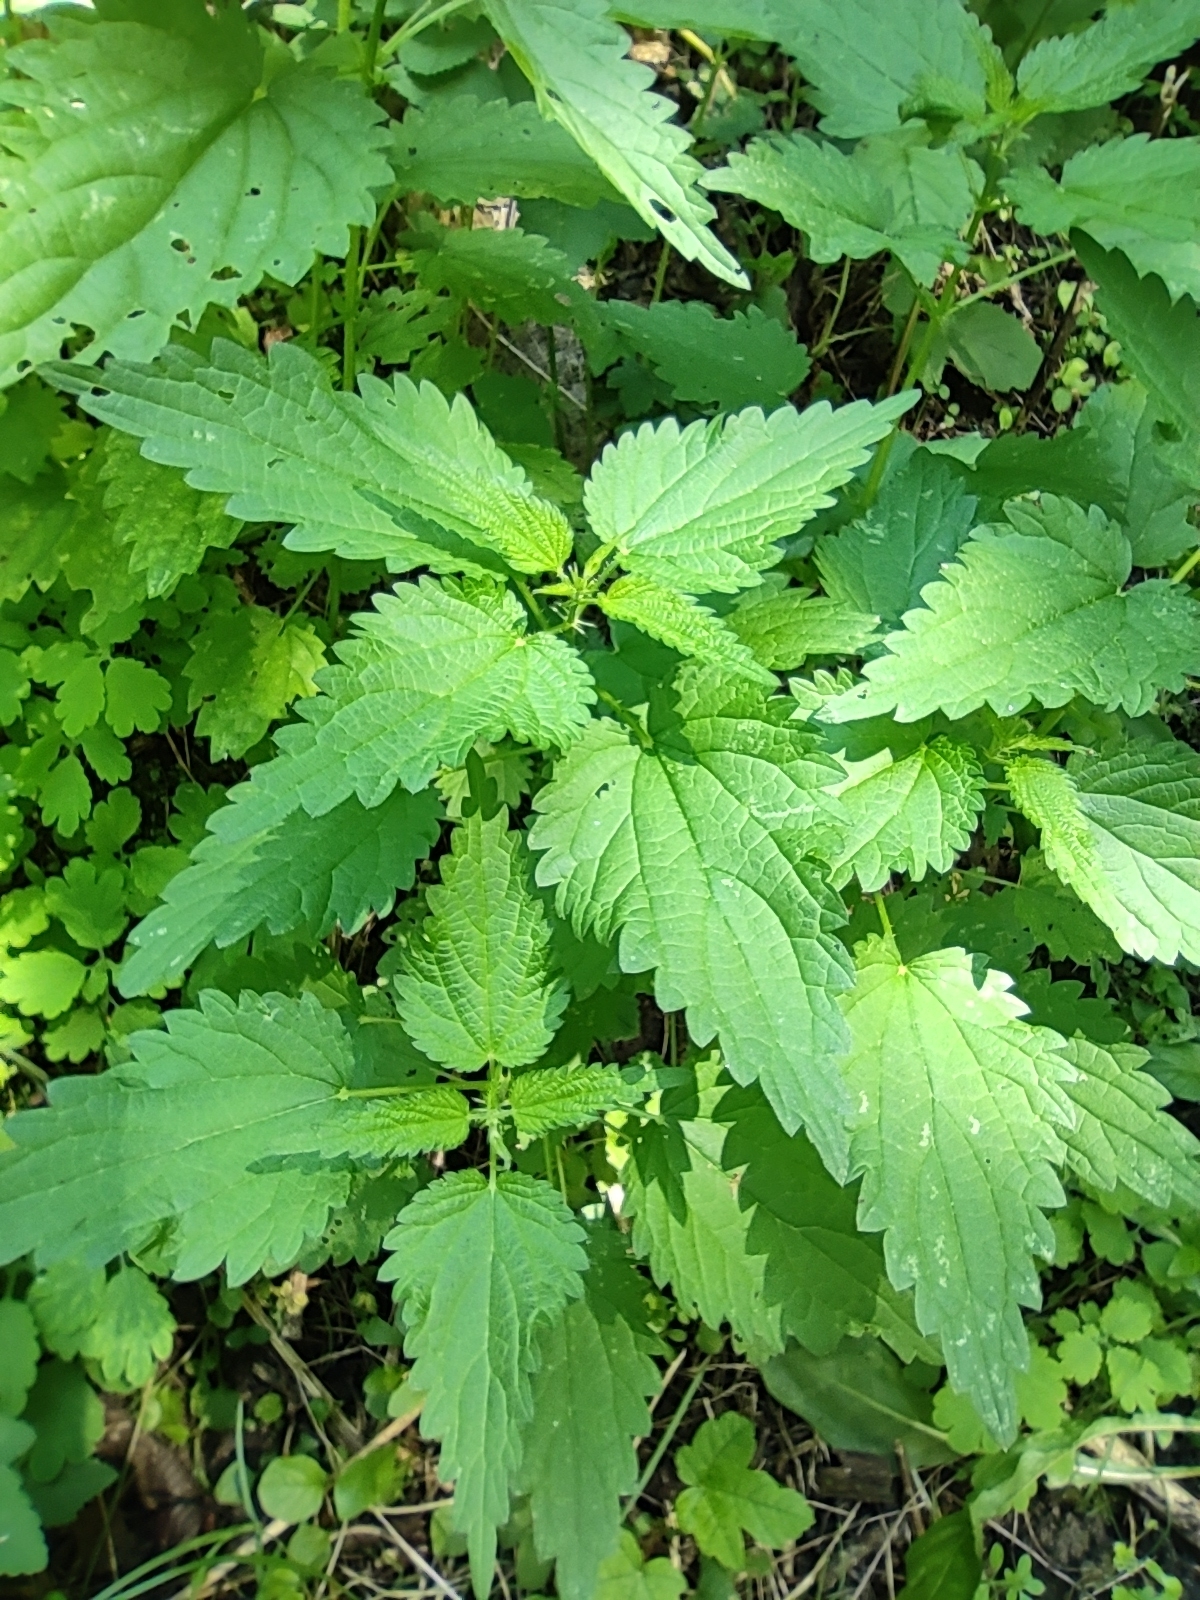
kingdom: Plantae
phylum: Tracheophyta
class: Magnoliopsida
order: Rosales
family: Urticaceae
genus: Urtica
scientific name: Urtica dioica
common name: Common nettle
